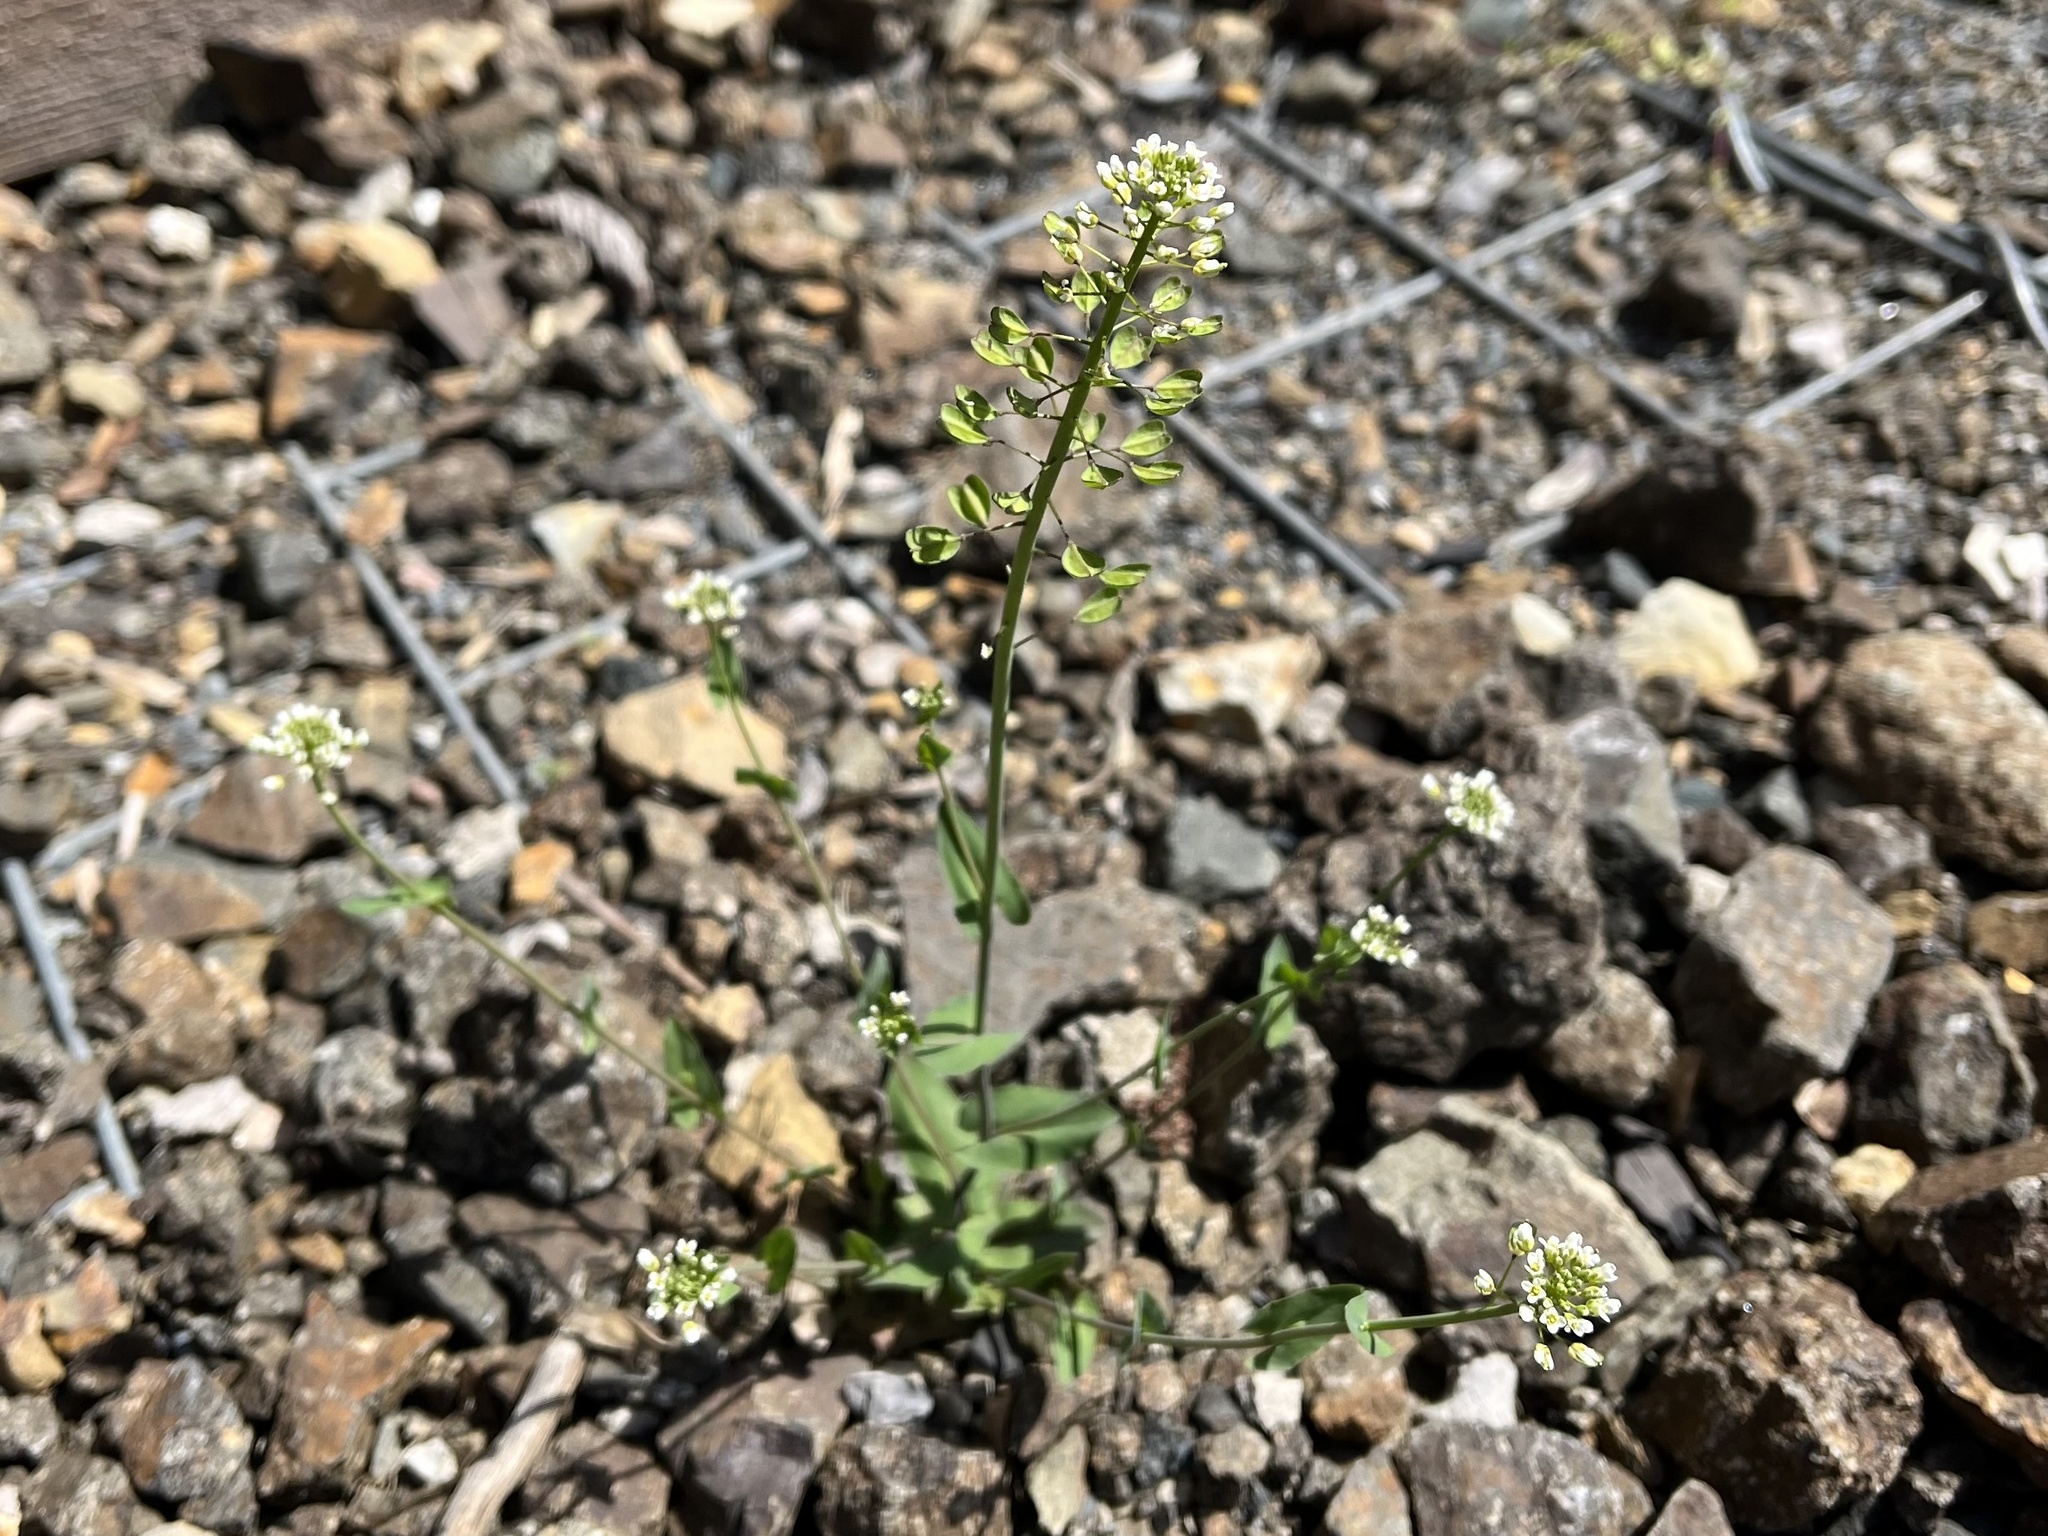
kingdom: Plantae
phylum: Tracheophyta
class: Magnoliopsida
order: Brassicales
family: Brassicaceae
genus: Noccaea
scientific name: Noccaea perfoliata
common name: Perfoliate pennycress
